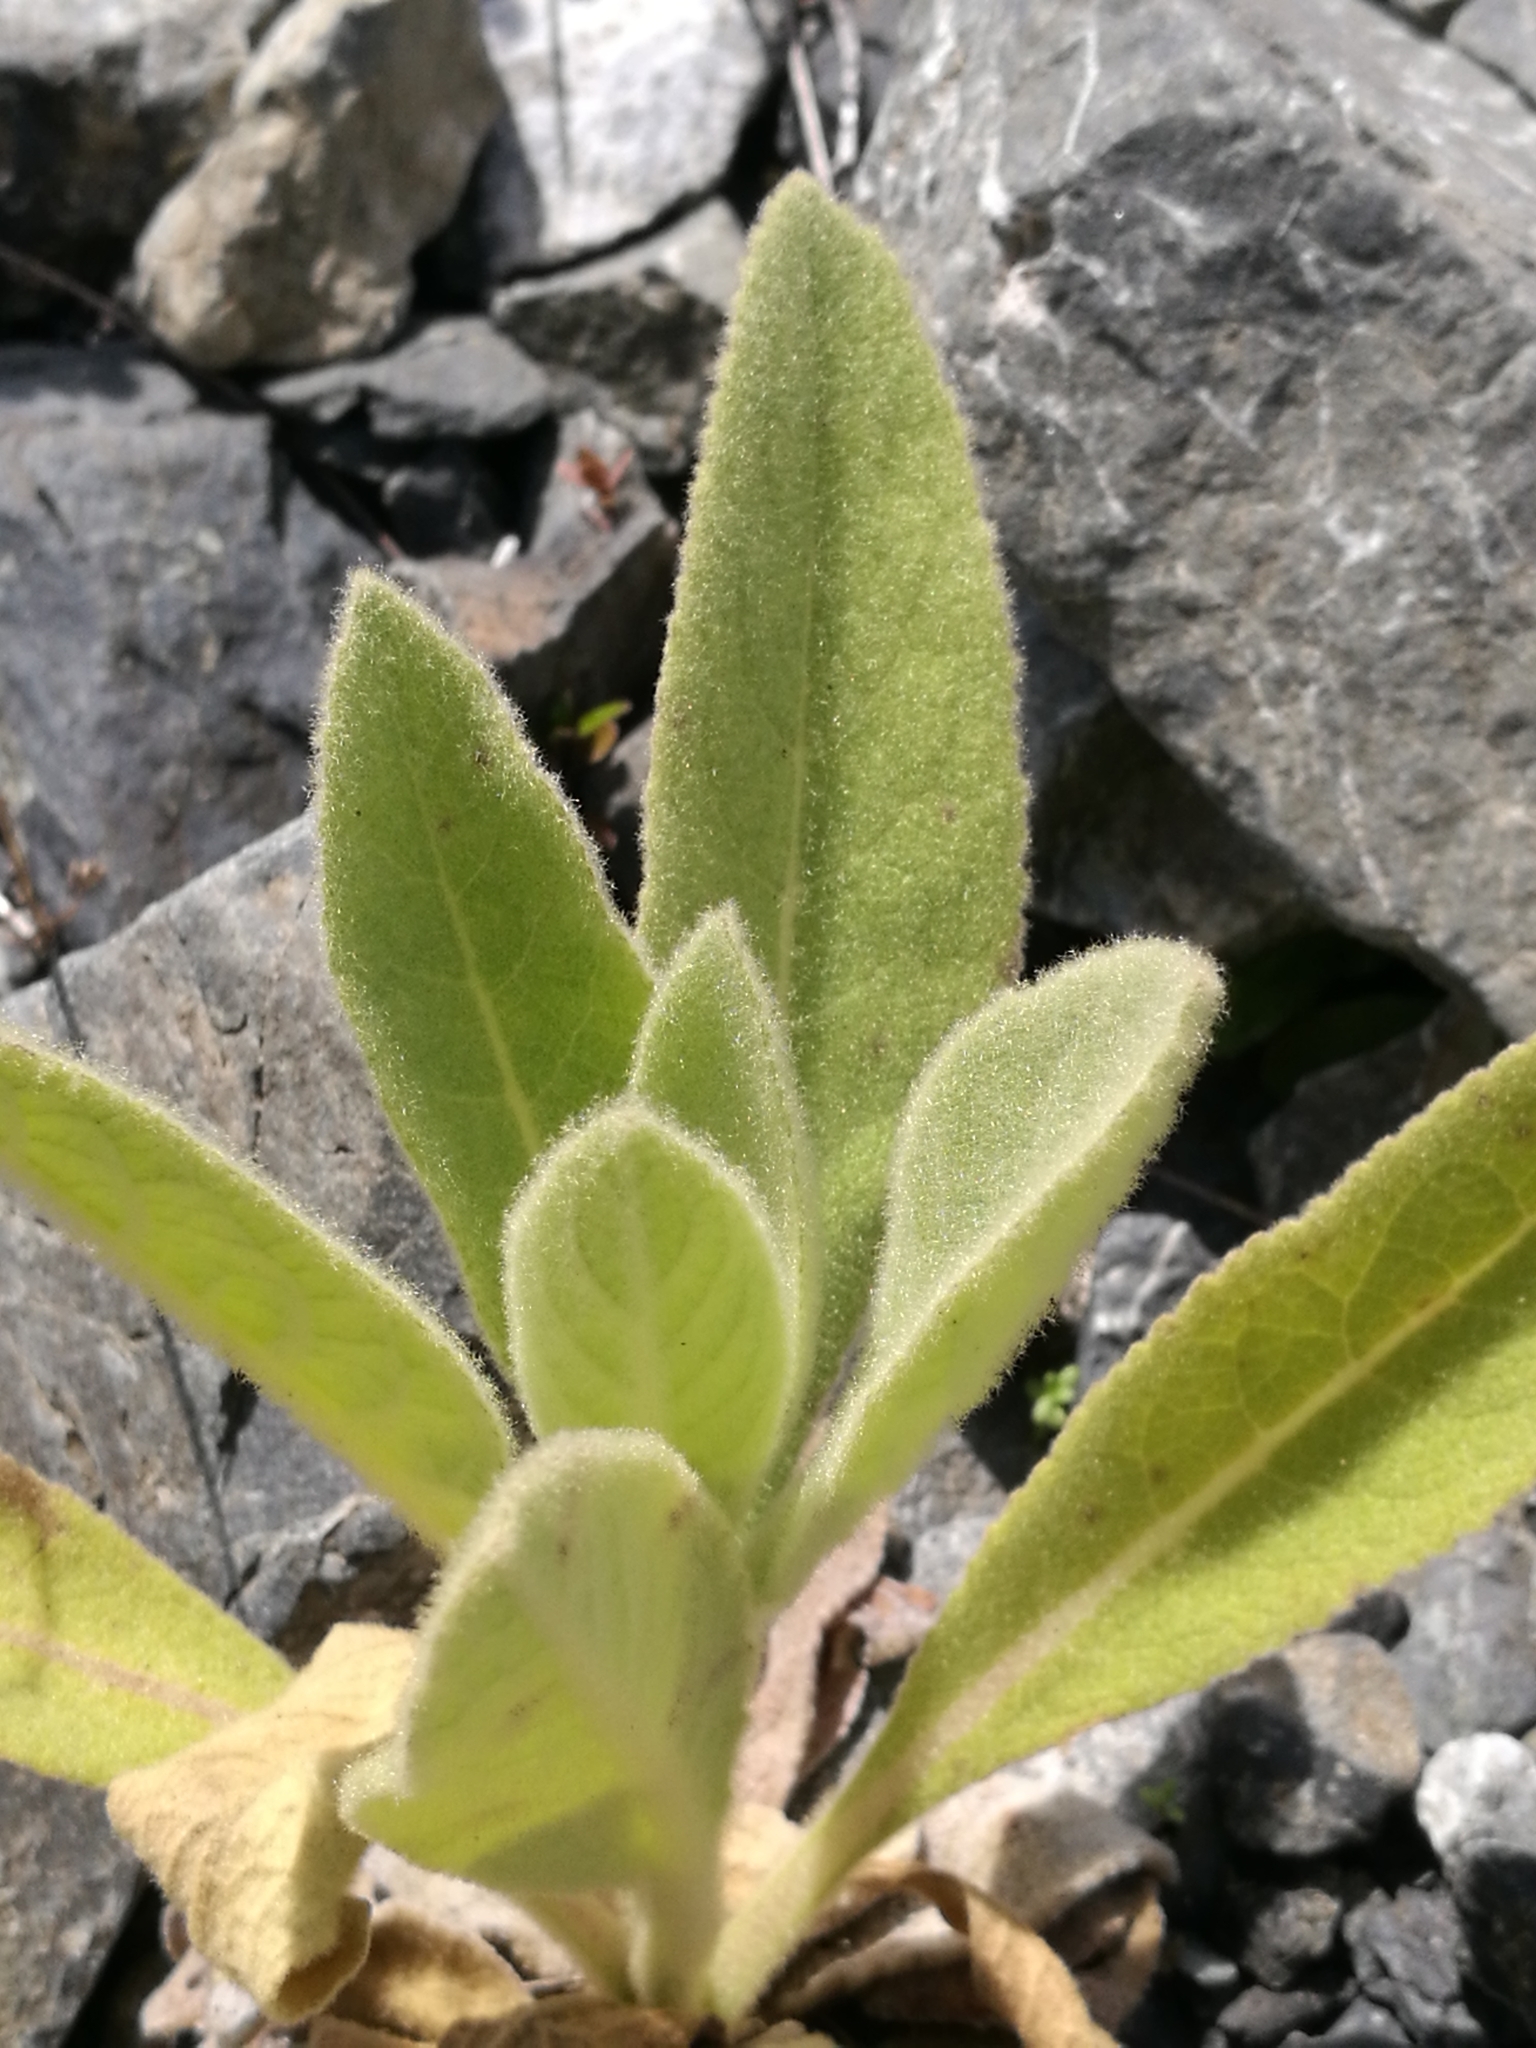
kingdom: Plantae
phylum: Tracheophyta
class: Magnoliopsida
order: Lamiales
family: Scrophulariaceae
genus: Verbascum
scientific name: Verbascum thapsus
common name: Common mullein
